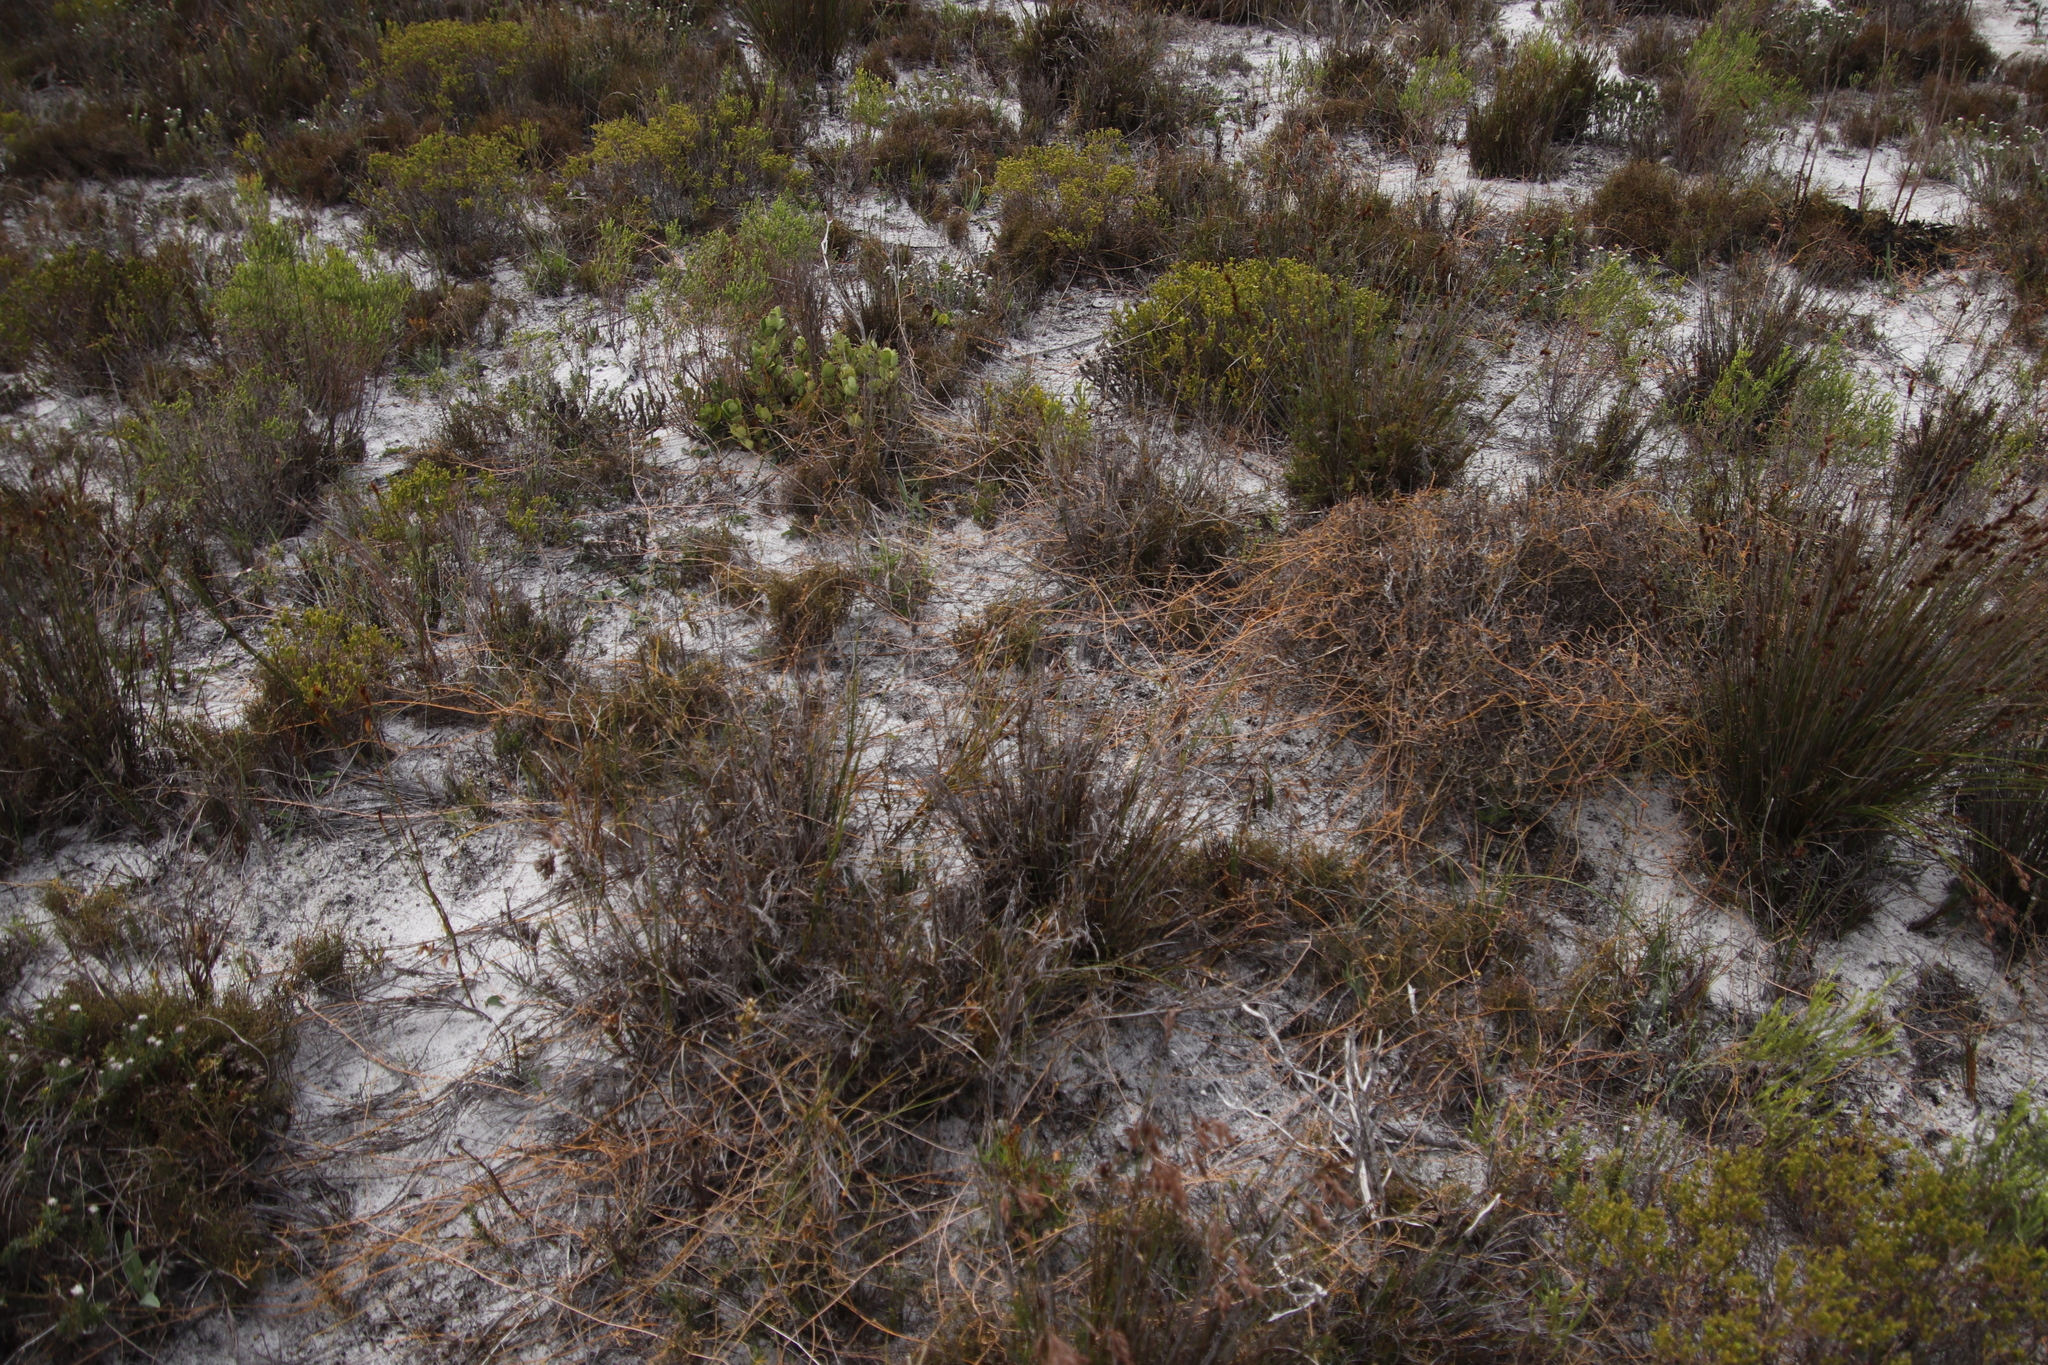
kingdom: Plantae
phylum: Tracheophyta
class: Magnoliopsida
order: Laurales
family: Lauraceae
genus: Cassytha
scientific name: Cassytha ciliolata
